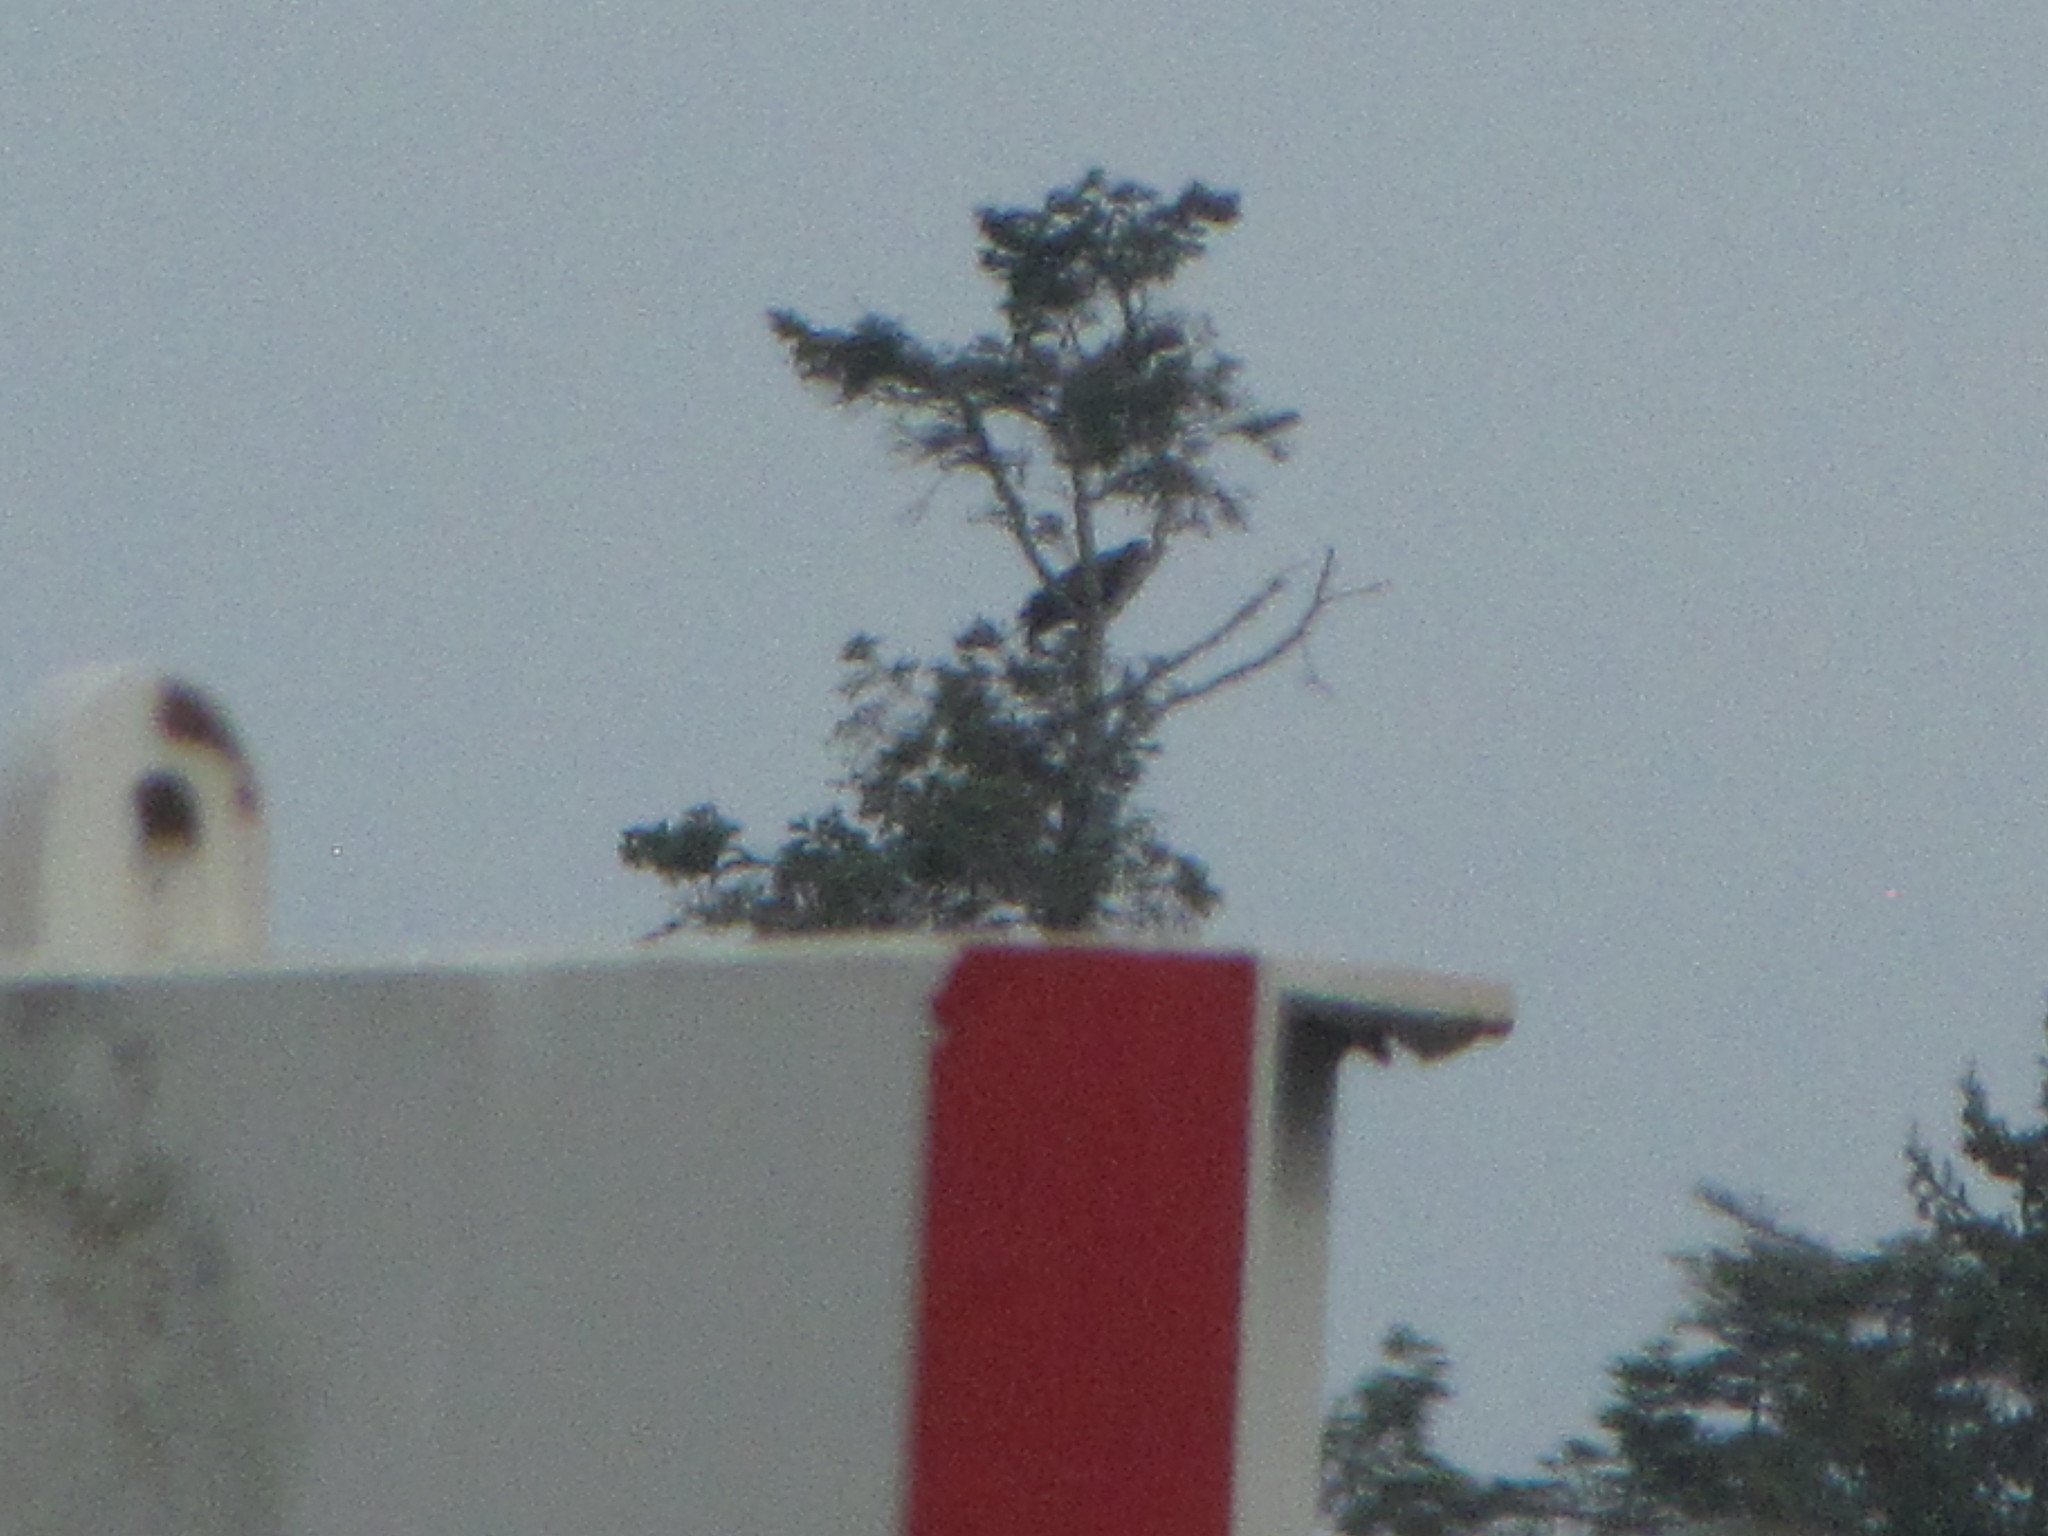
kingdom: Animalia
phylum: Chordata
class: Aves
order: Passeriformes
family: Corvidae
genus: Corvus
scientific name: Corvus corax
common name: Common raven
